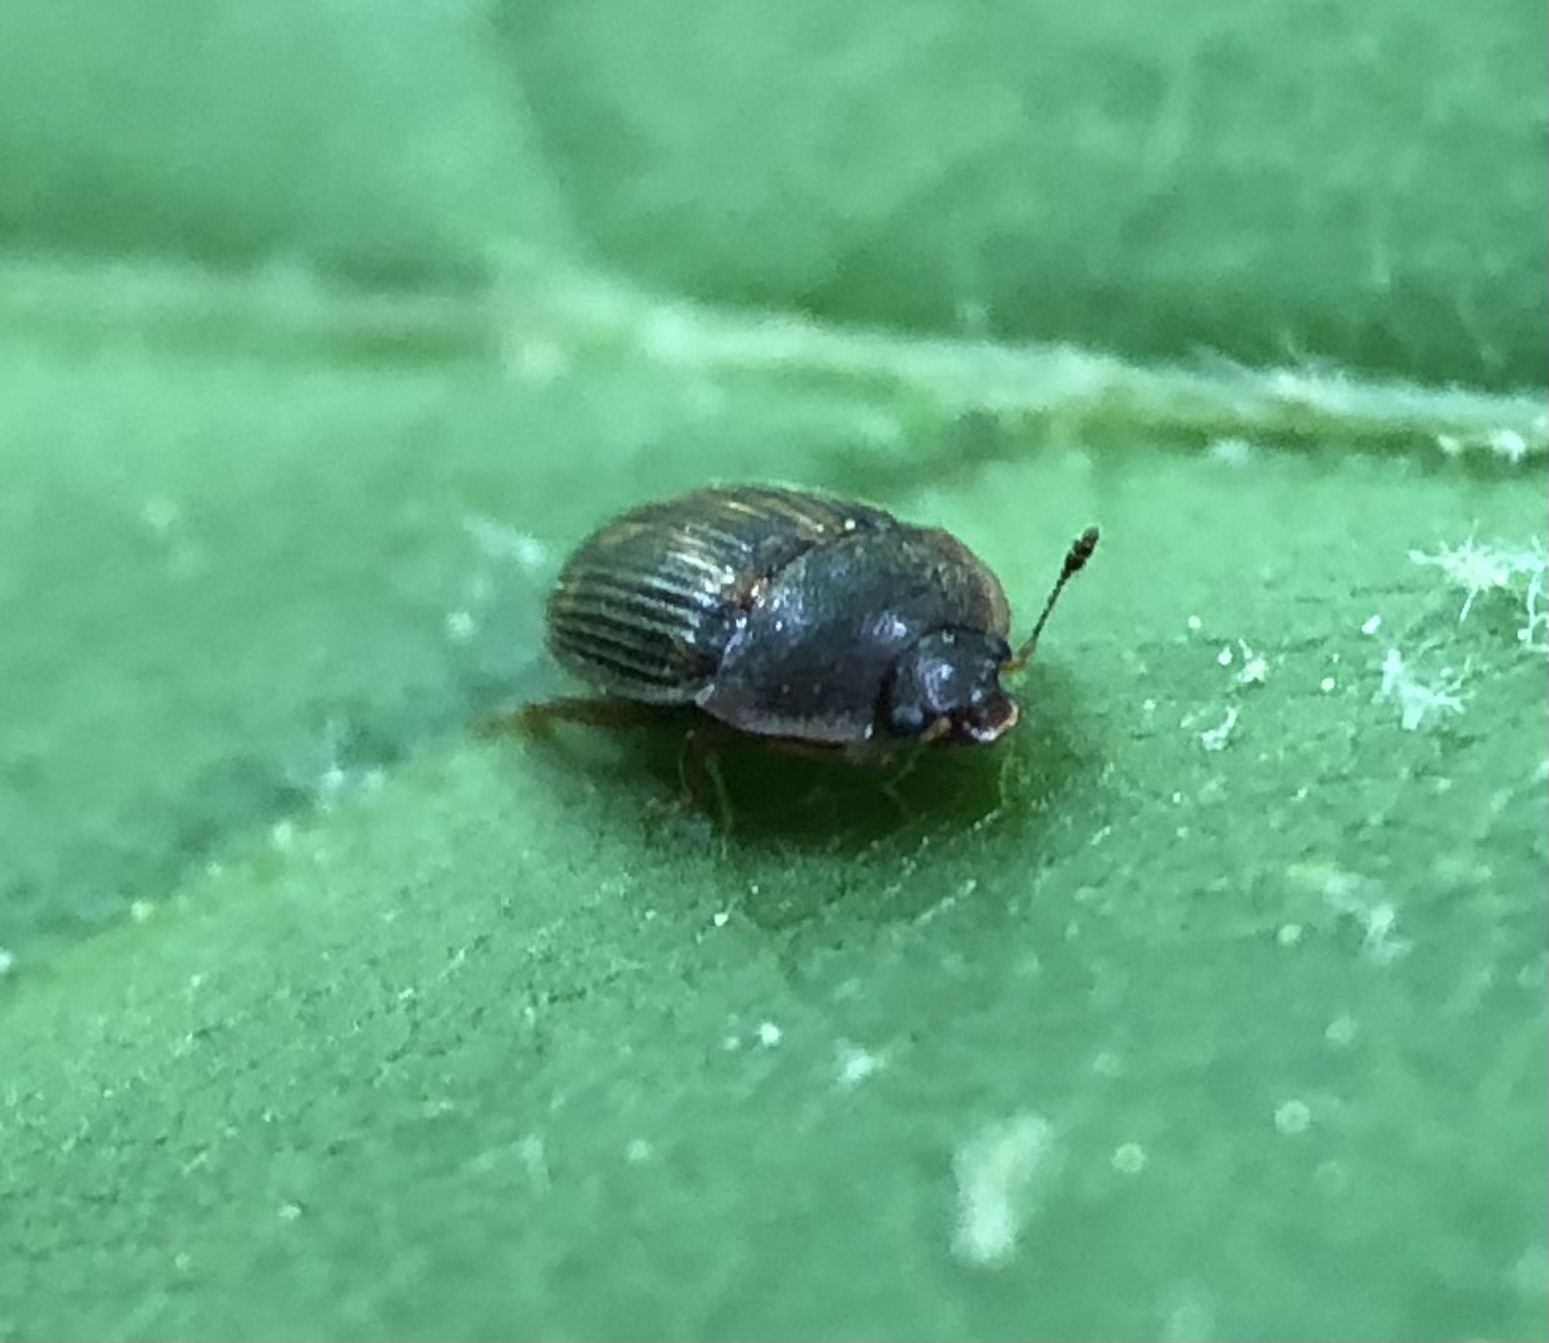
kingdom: Animalia
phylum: Arthropoda
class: Insecta
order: Coleoptera
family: Nitidulidae
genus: Stelidota
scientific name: Stelidota geminata
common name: Strawberry sap beetle
